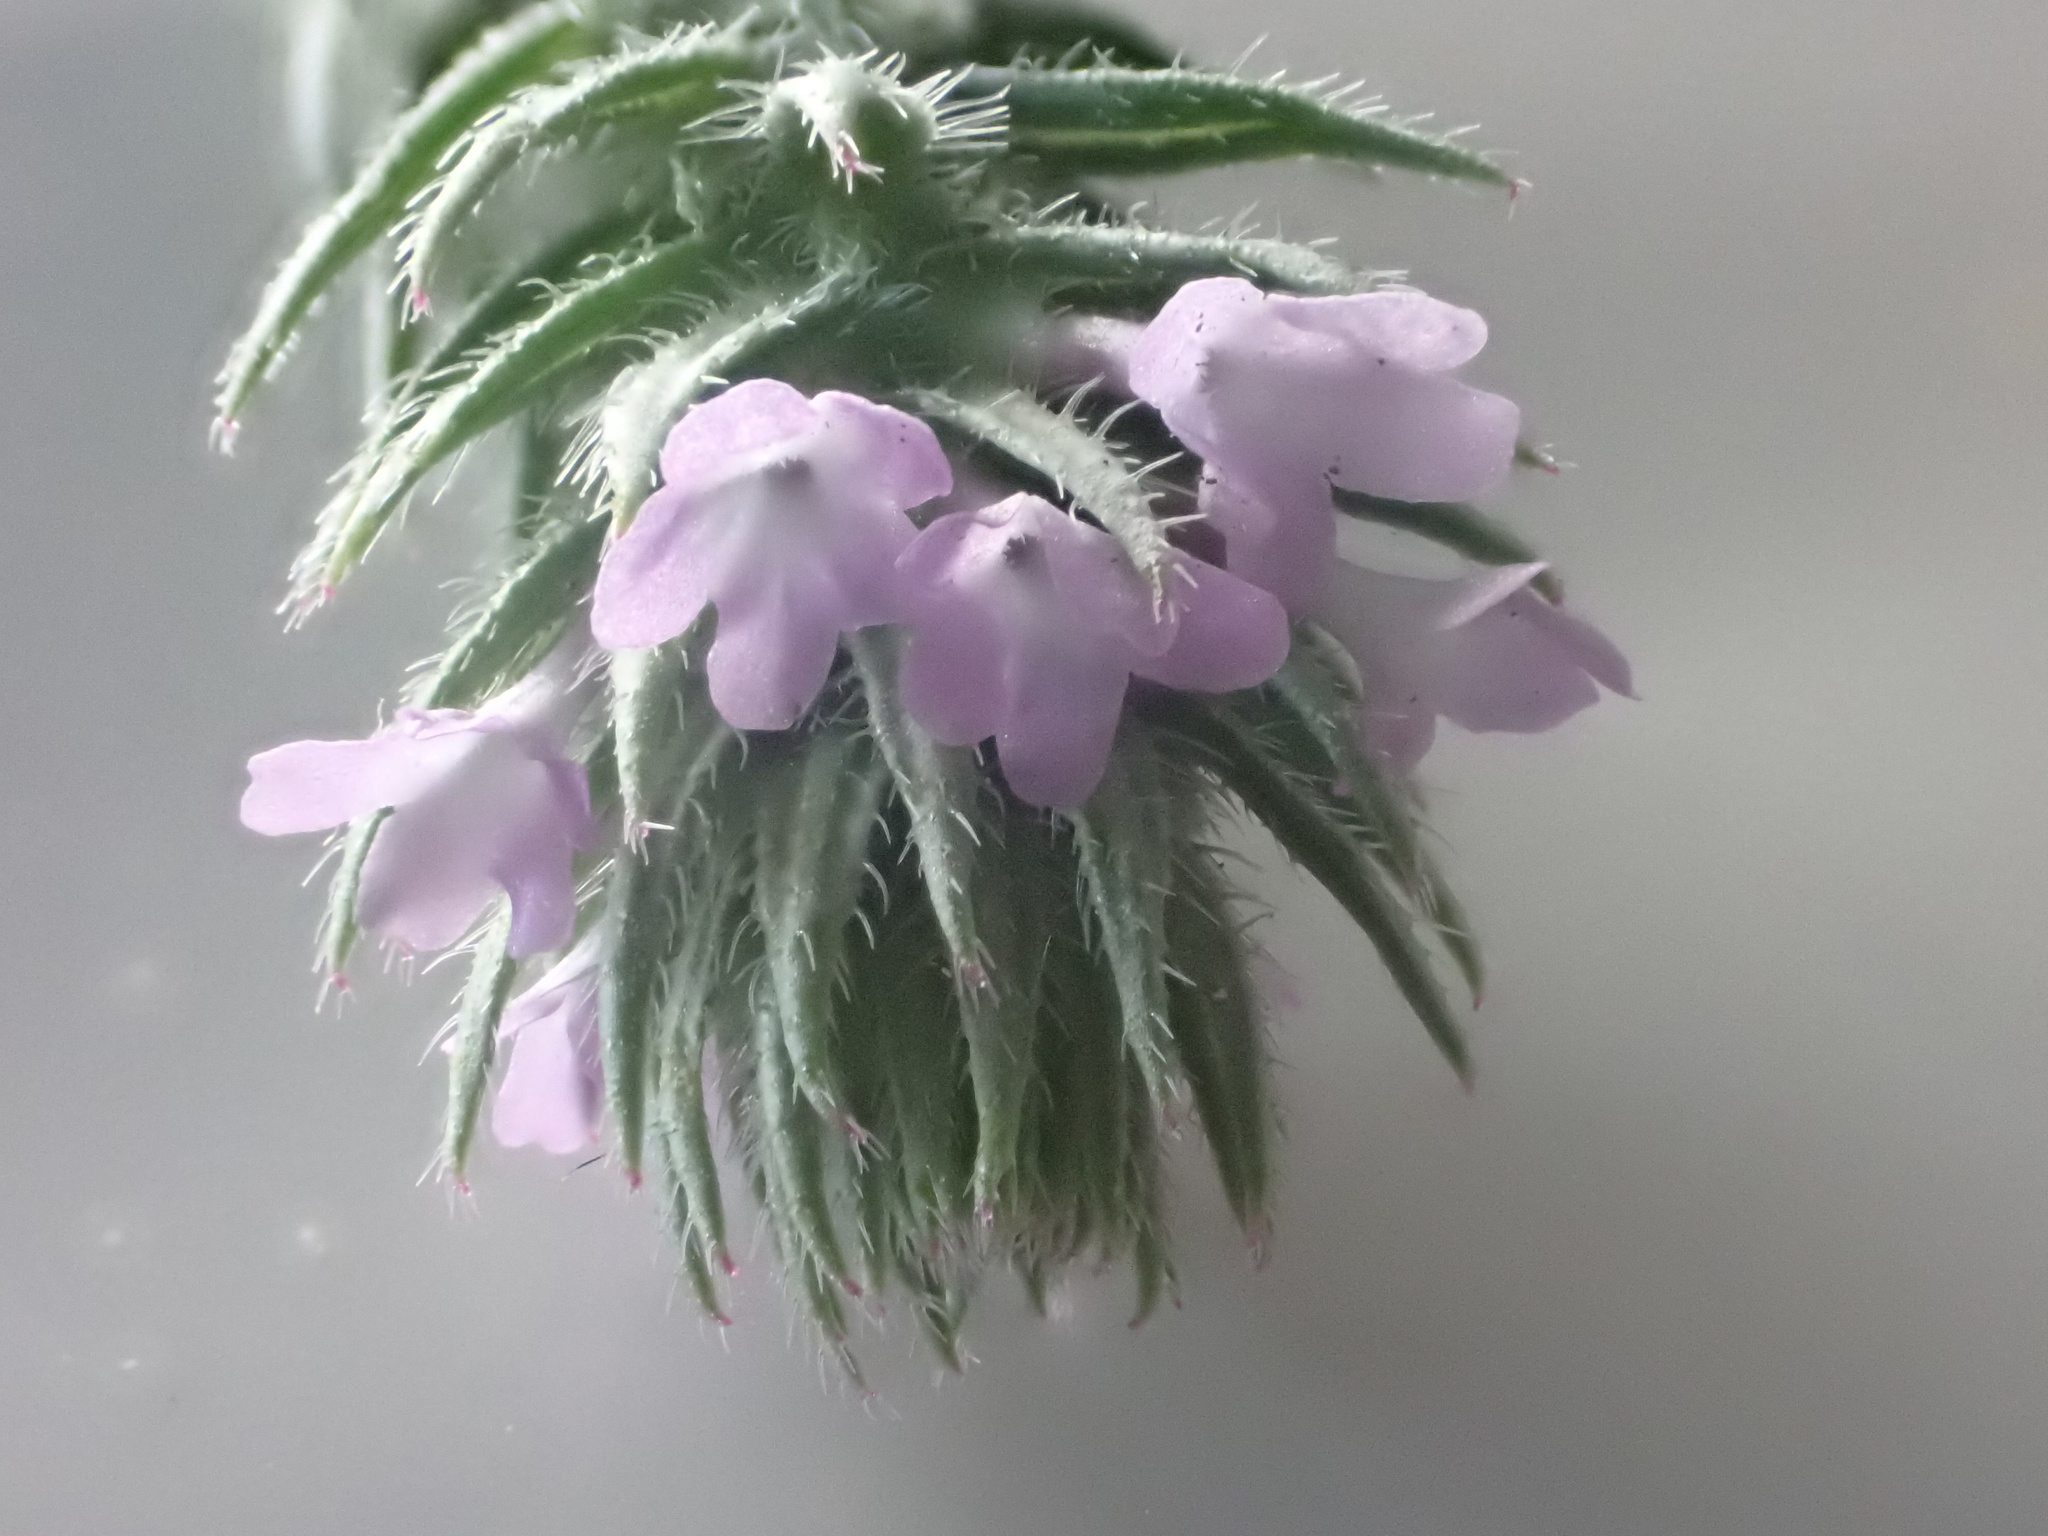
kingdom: Plantae
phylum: Tracheophyta
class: Magnoliopsida
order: Lamiales
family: Verbenaceae
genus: Verbena
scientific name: Verbena bracteata
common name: Bracted vervain
